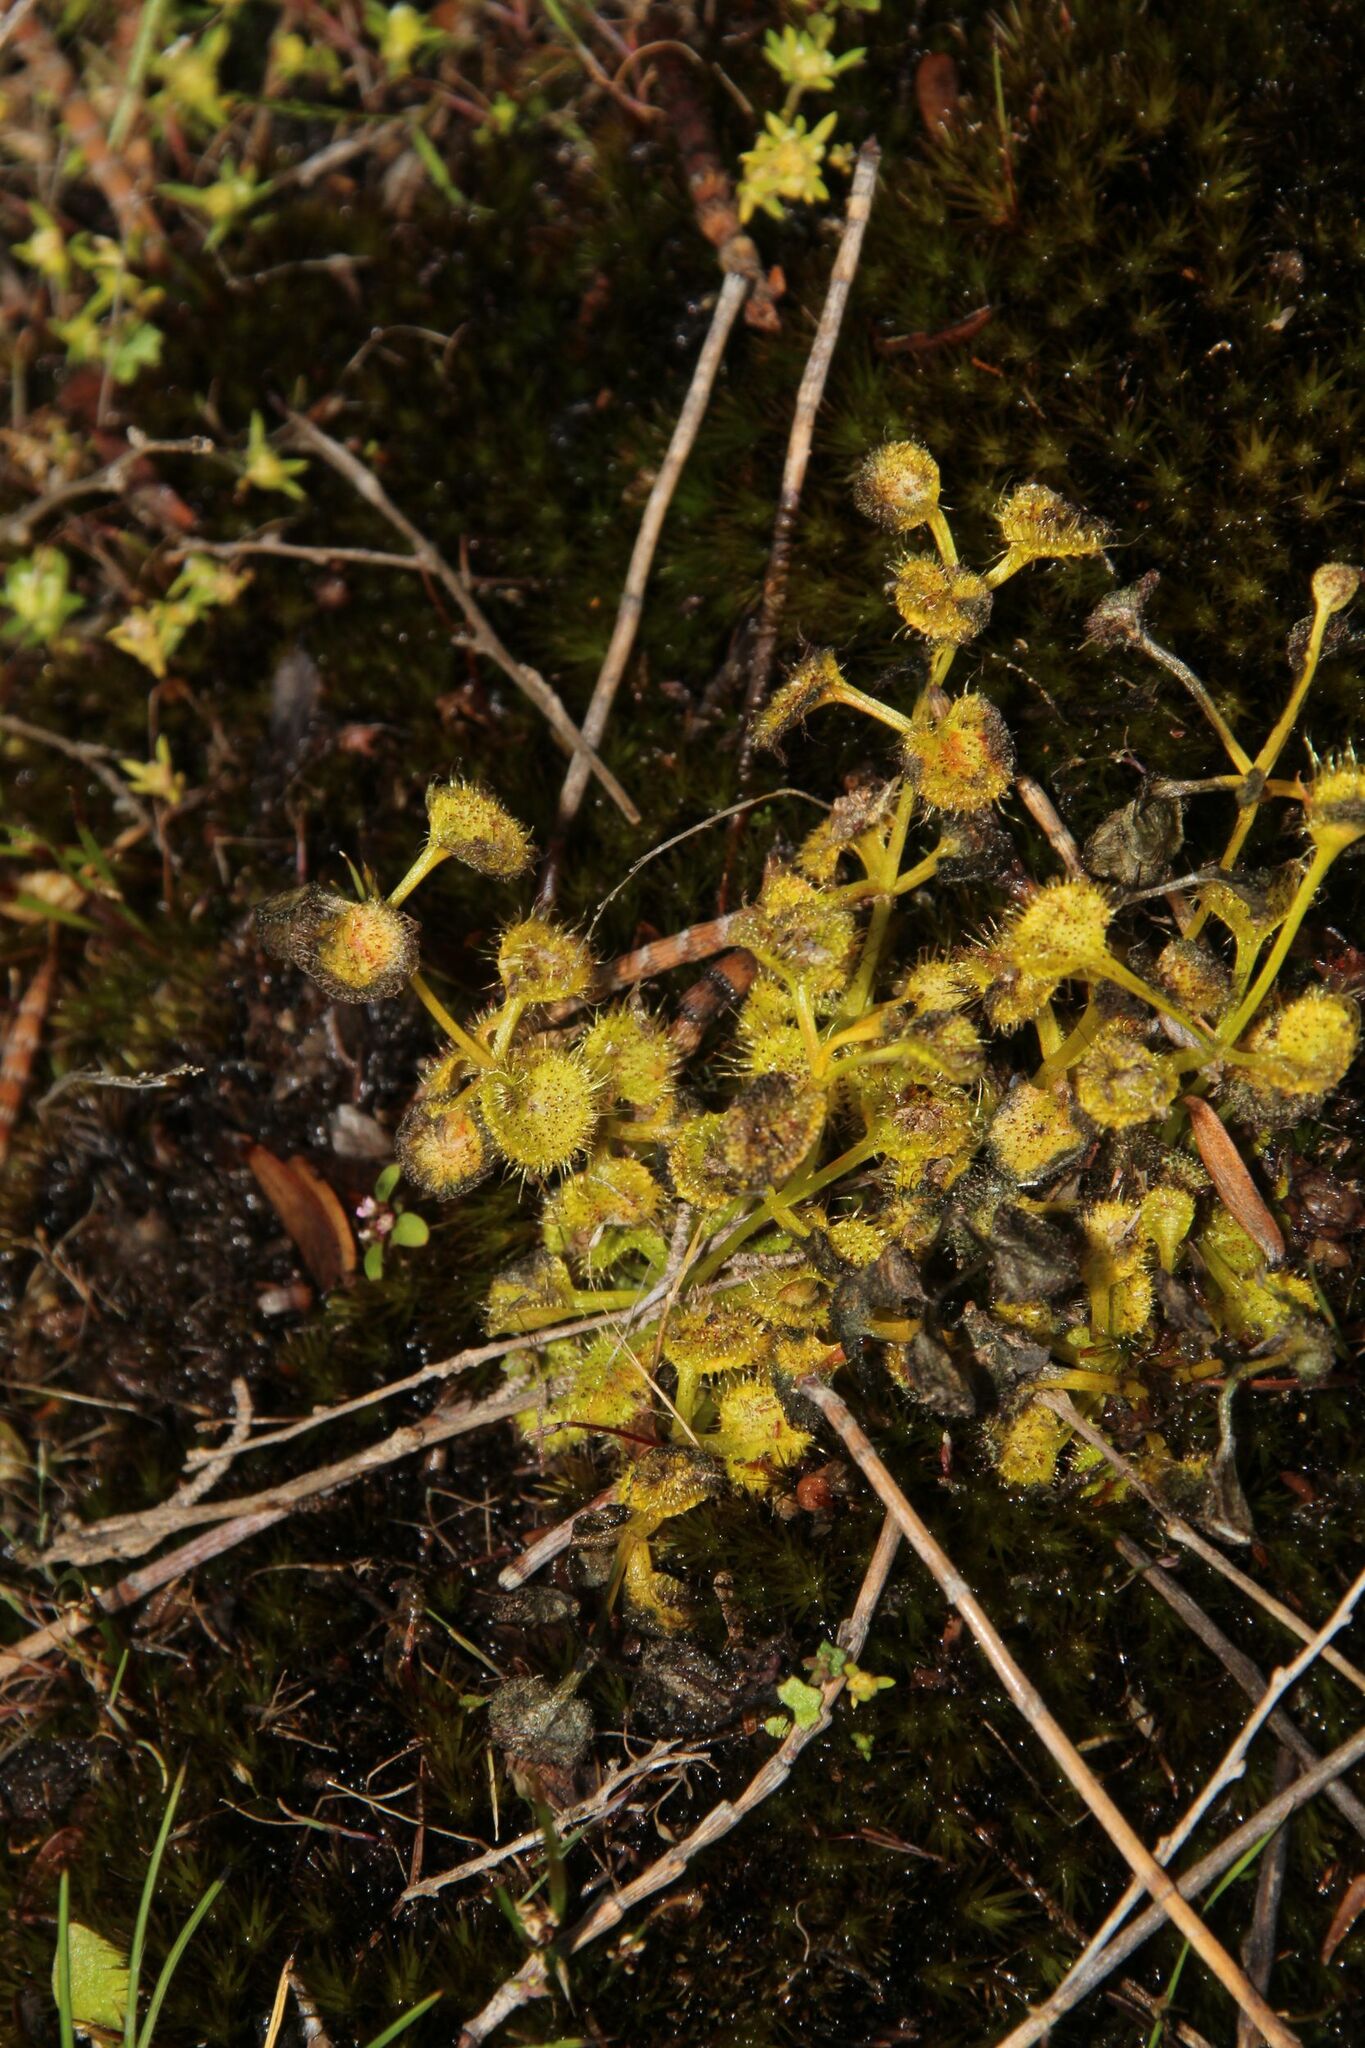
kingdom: Plantae
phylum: Tracheophyta
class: Magnoliopsida
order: Caryophyllales
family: Droseraceae
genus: Drosera
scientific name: Drosera rupicola
